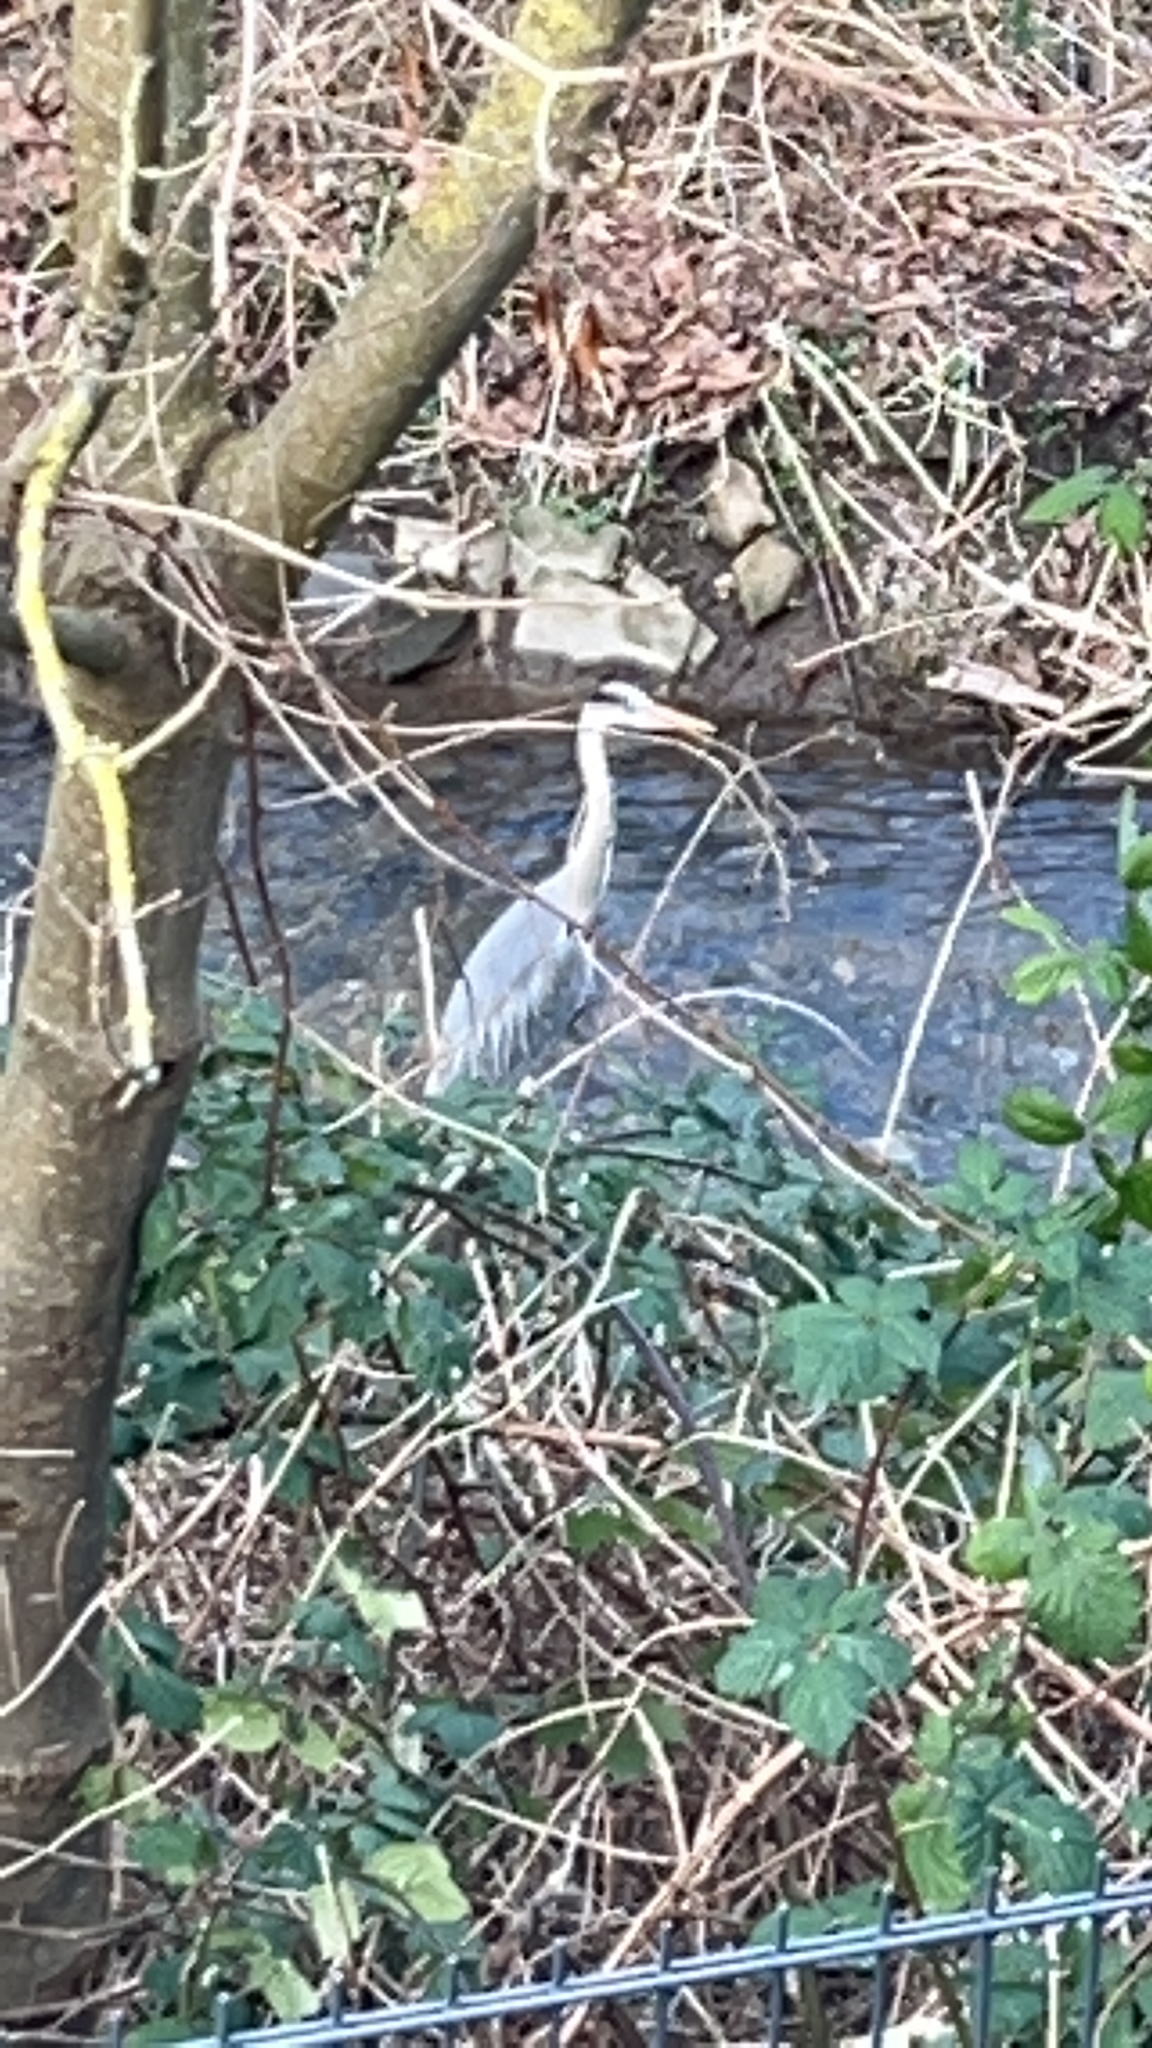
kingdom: Animalia
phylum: Chordata
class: Aves
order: Pelecaniformes
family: Ardeidae
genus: Ardea
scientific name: Ardea cinerea
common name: Grey heron
